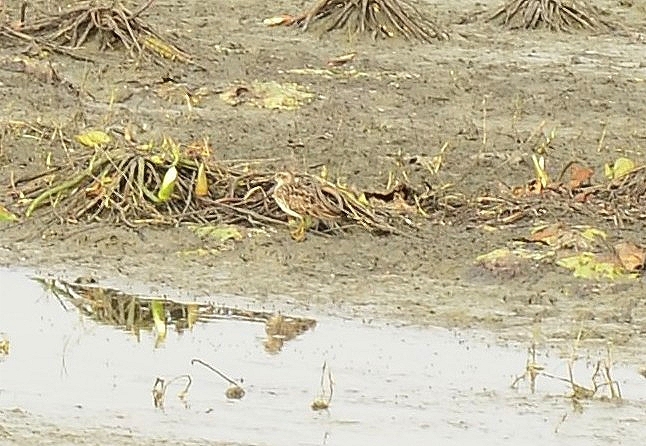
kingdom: Animalia
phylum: Chordata
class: Aves
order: Charadriiformes
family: Scolopacidae
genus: Calidris
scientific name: Calidris subminuta
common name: Long-toed stint
